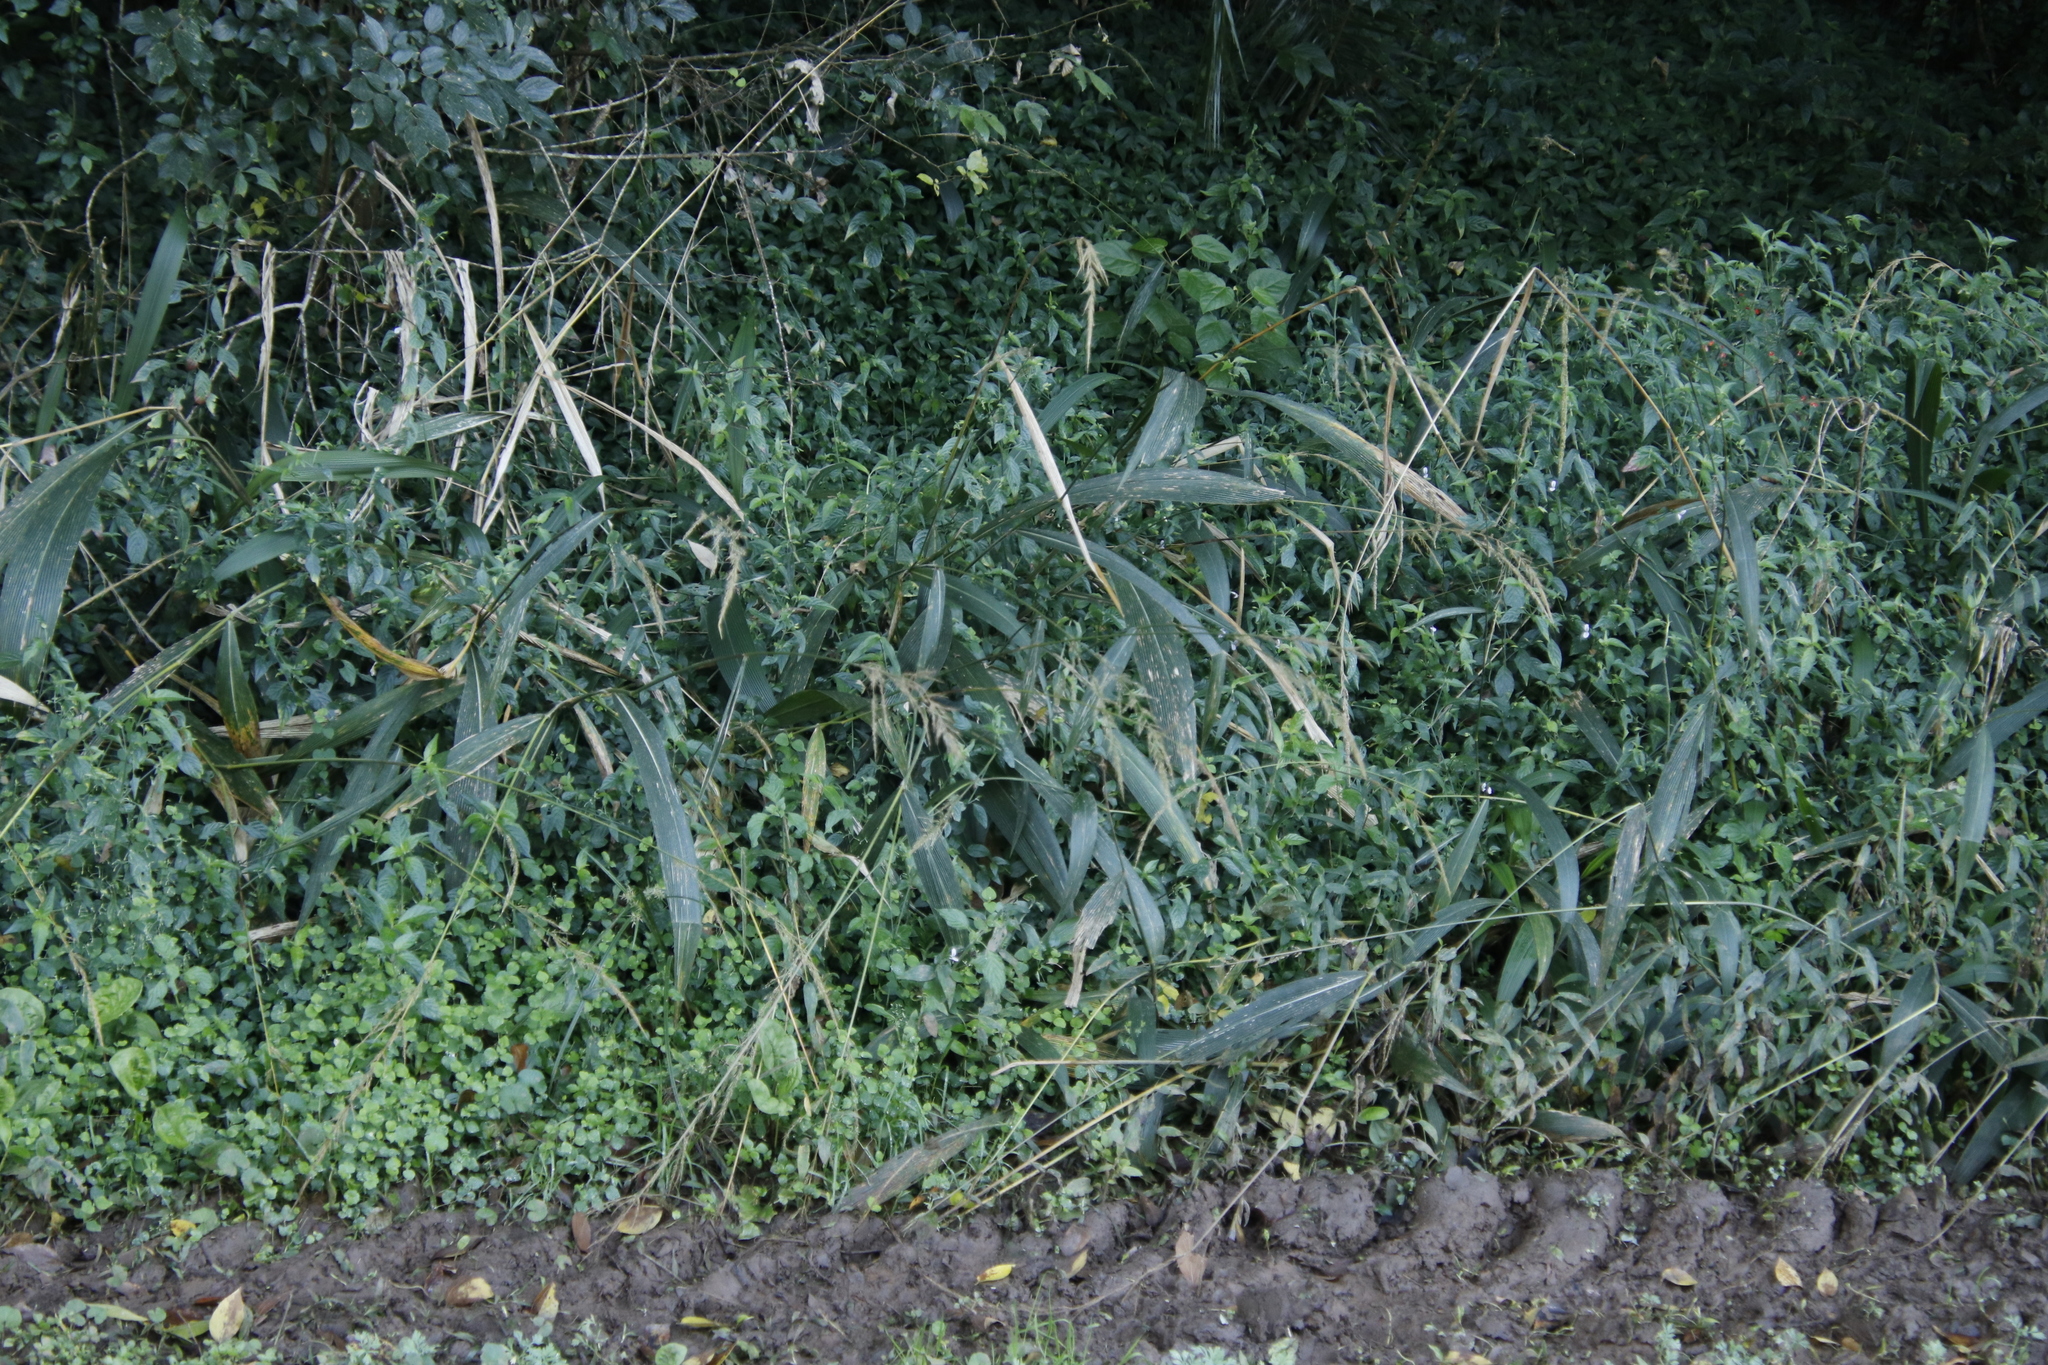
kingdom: Plantae
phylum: Tracheophyta
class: Liliopsida
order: Poales
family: Poaceae
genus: Setaria
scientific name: Setaria megaphylla
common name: Bigleaf bristlegrass
